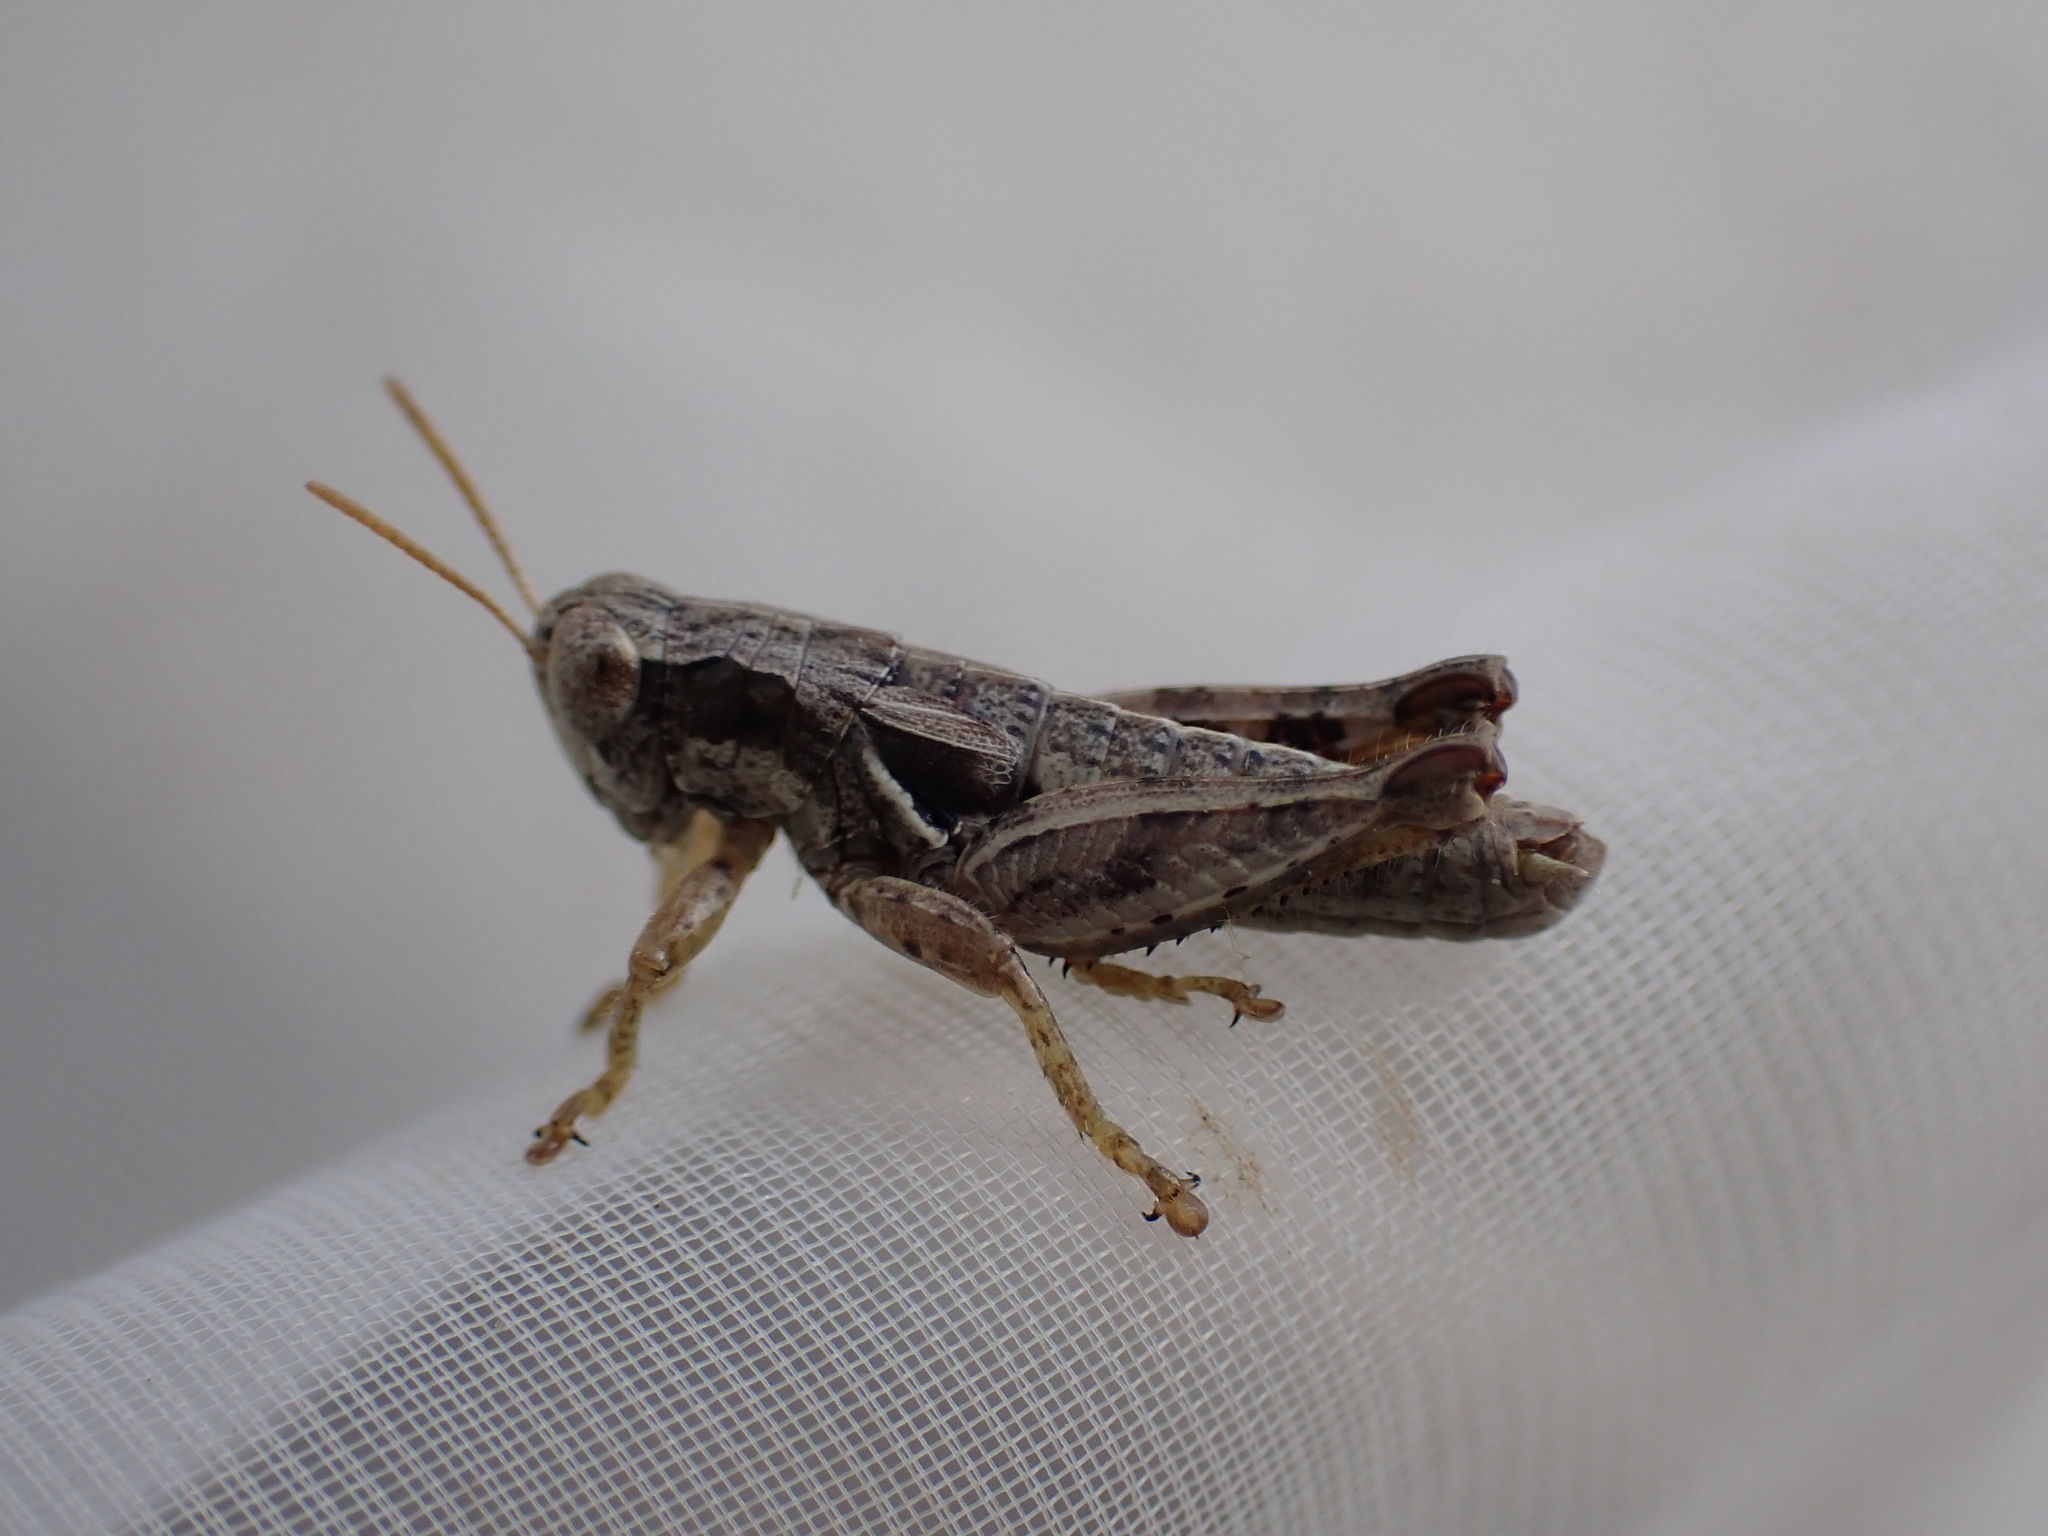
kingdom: Animalia
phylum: Arthropoda
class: Insecta
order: Orthoptera
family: Acrididae
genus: Pezotettix
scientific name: Pezotettix giornae
